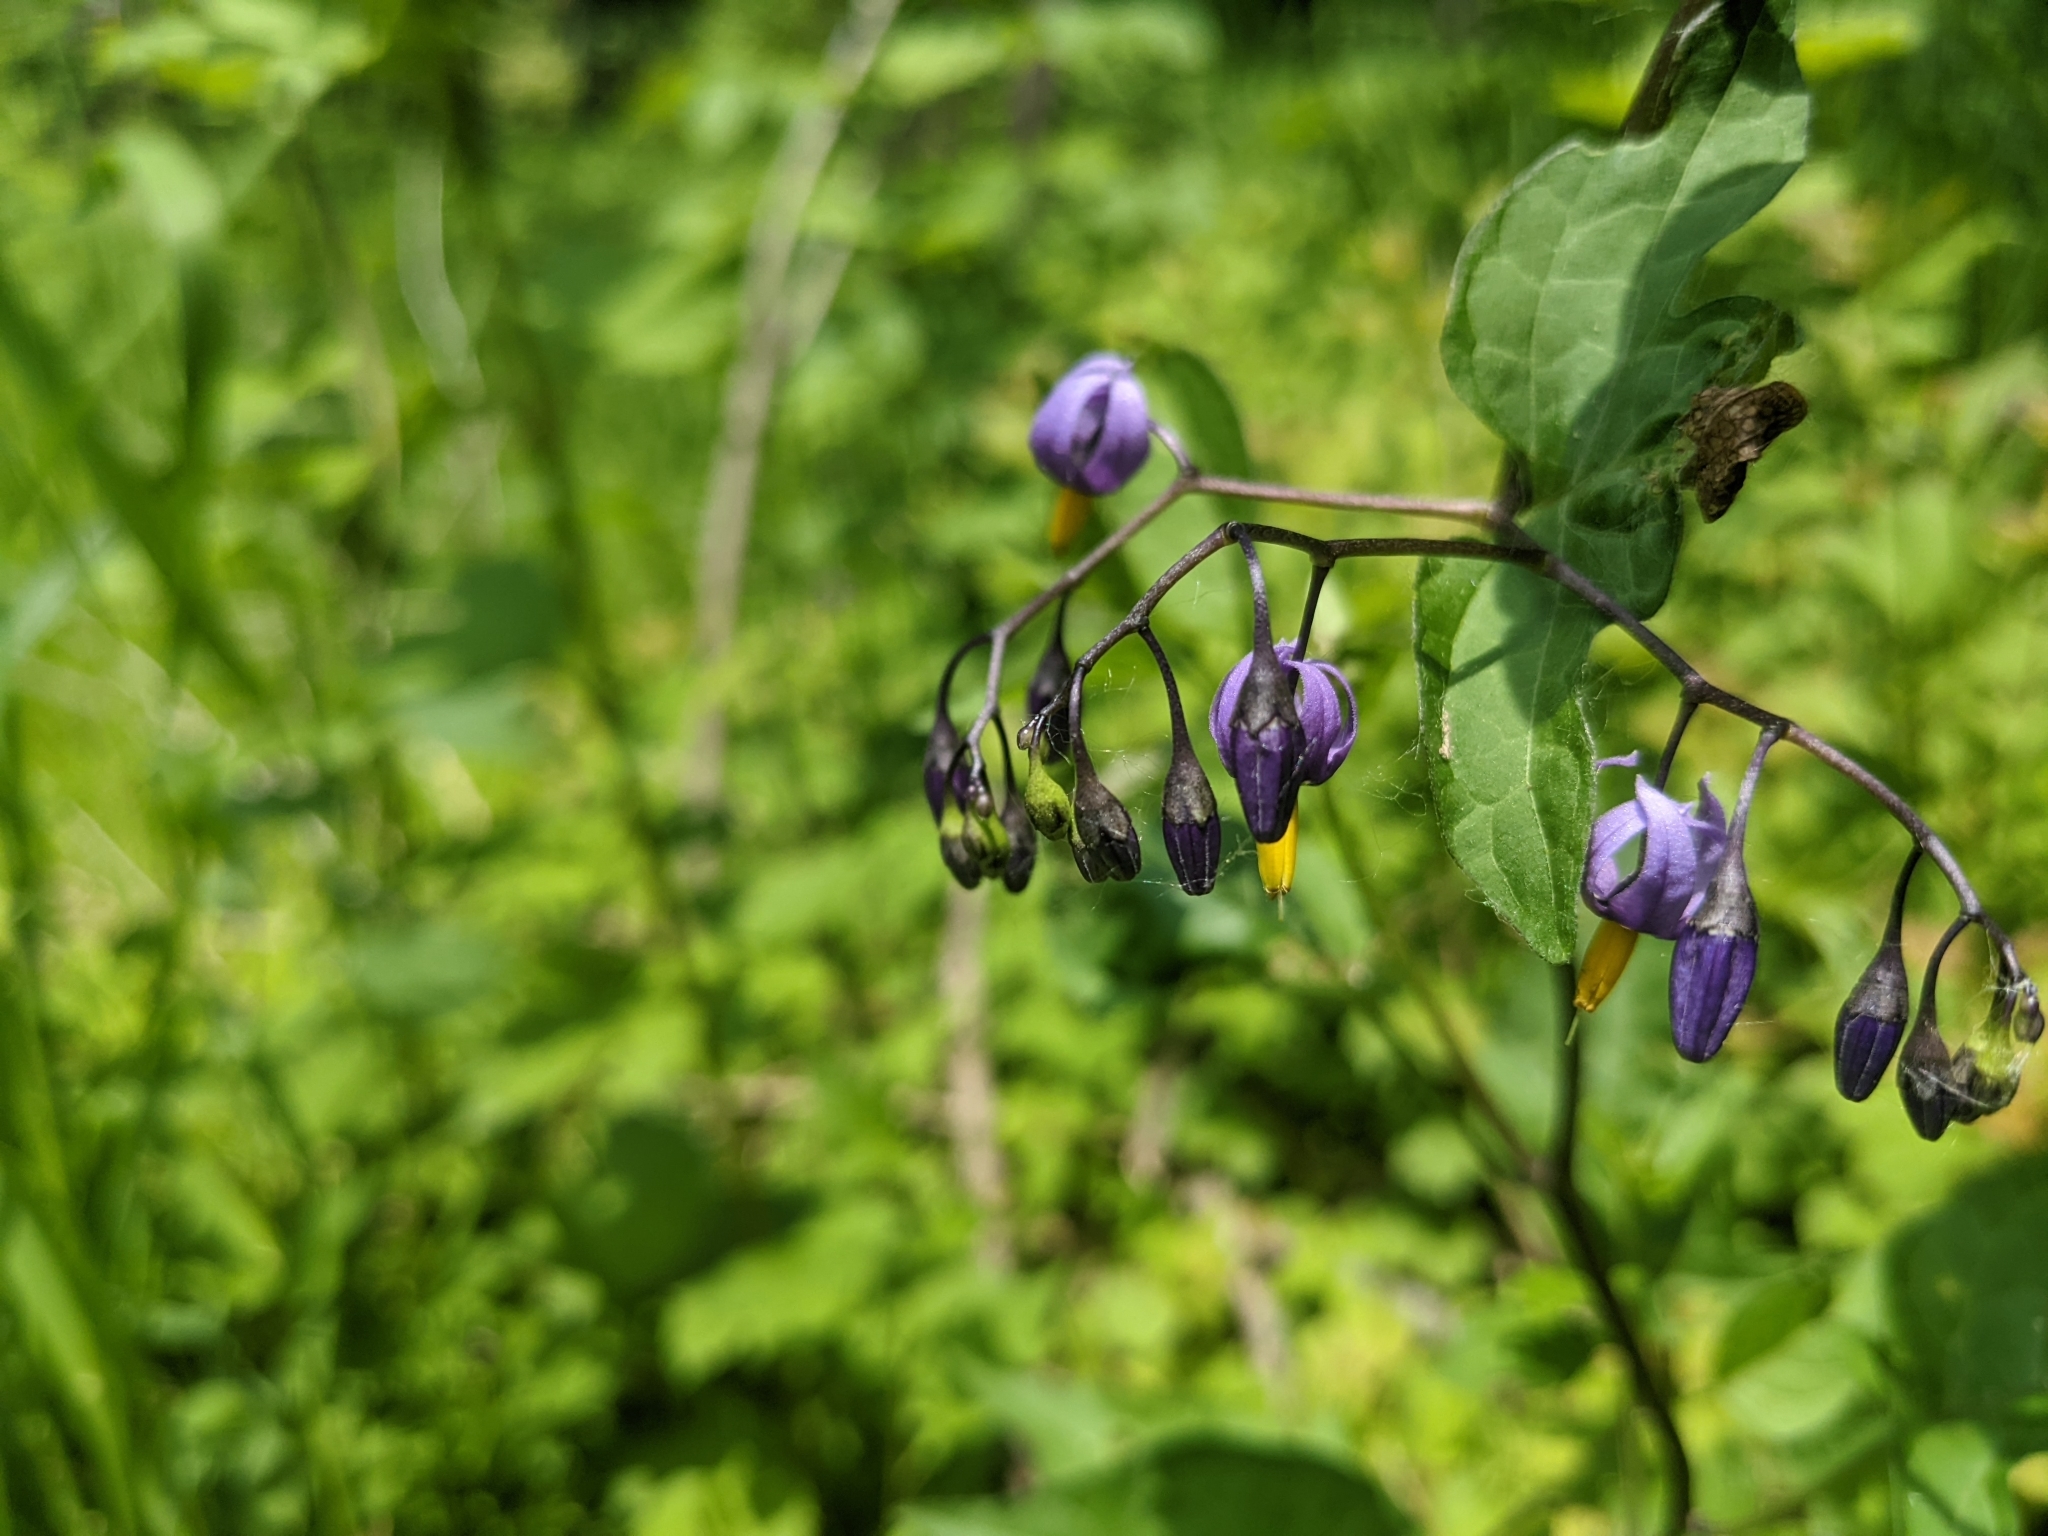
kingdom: Plantae
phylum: Tracheophyta
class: Magnoliopsida
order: Solanales
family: Solanaceae
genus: Solanum
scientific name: Solanum dulcamara
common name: Climbing nightshade
